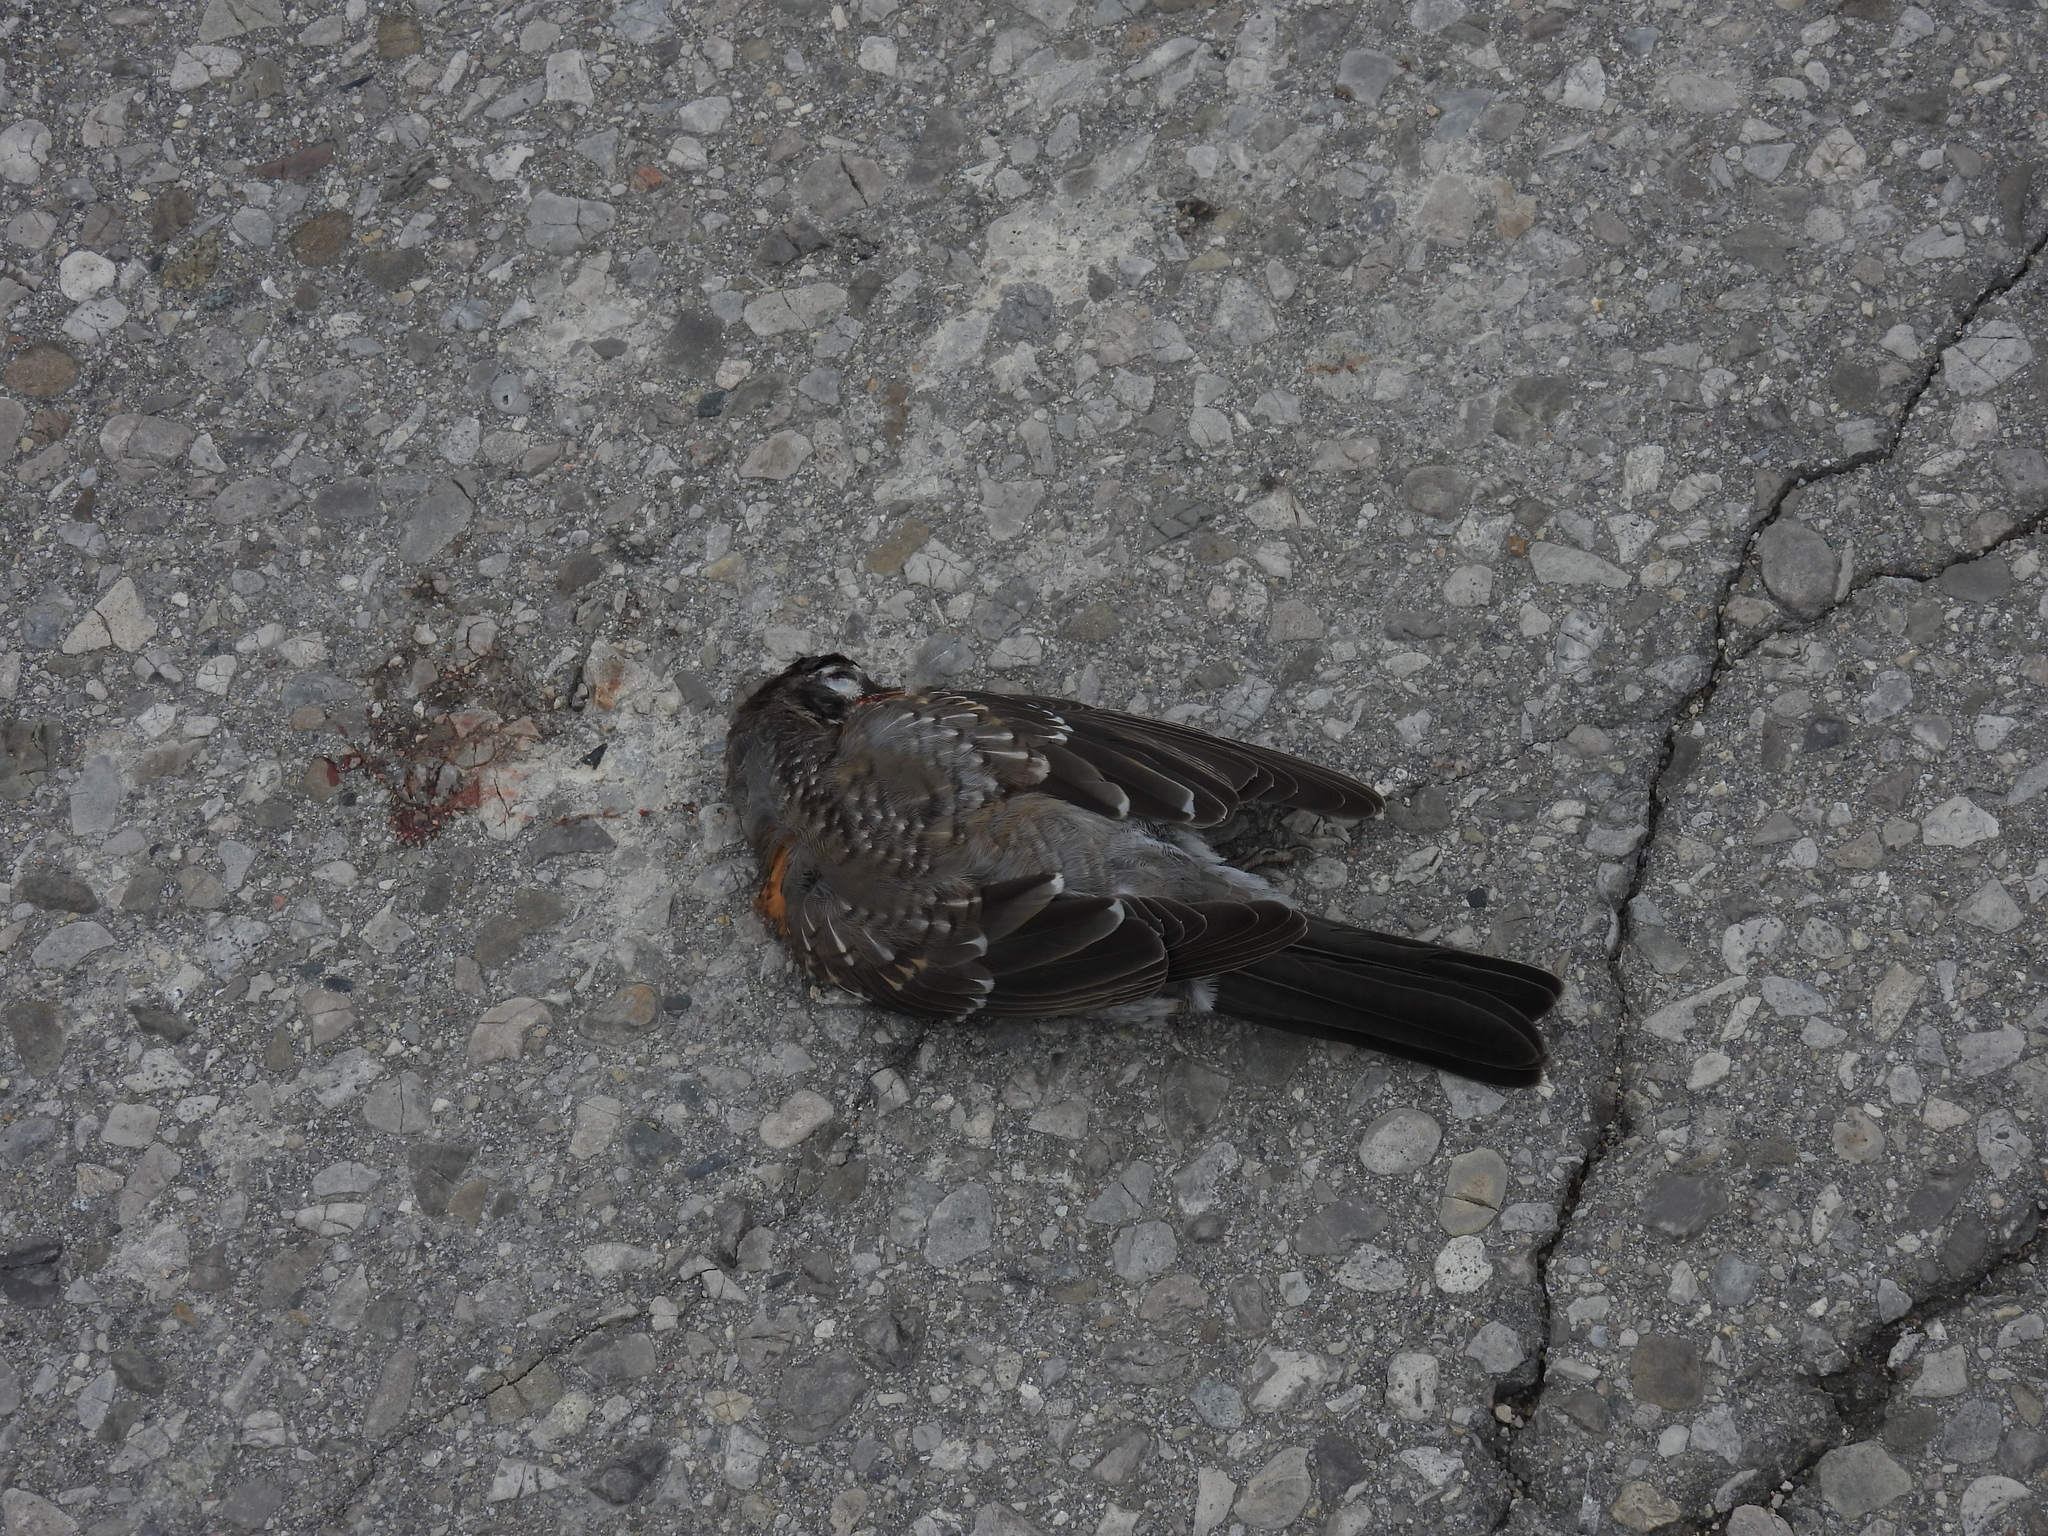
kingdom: Animalia
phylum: Chordata
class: Aves
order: Passeriformes
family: Turdidae
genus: Turdus
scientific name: Turdus migratorius
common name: American robin
